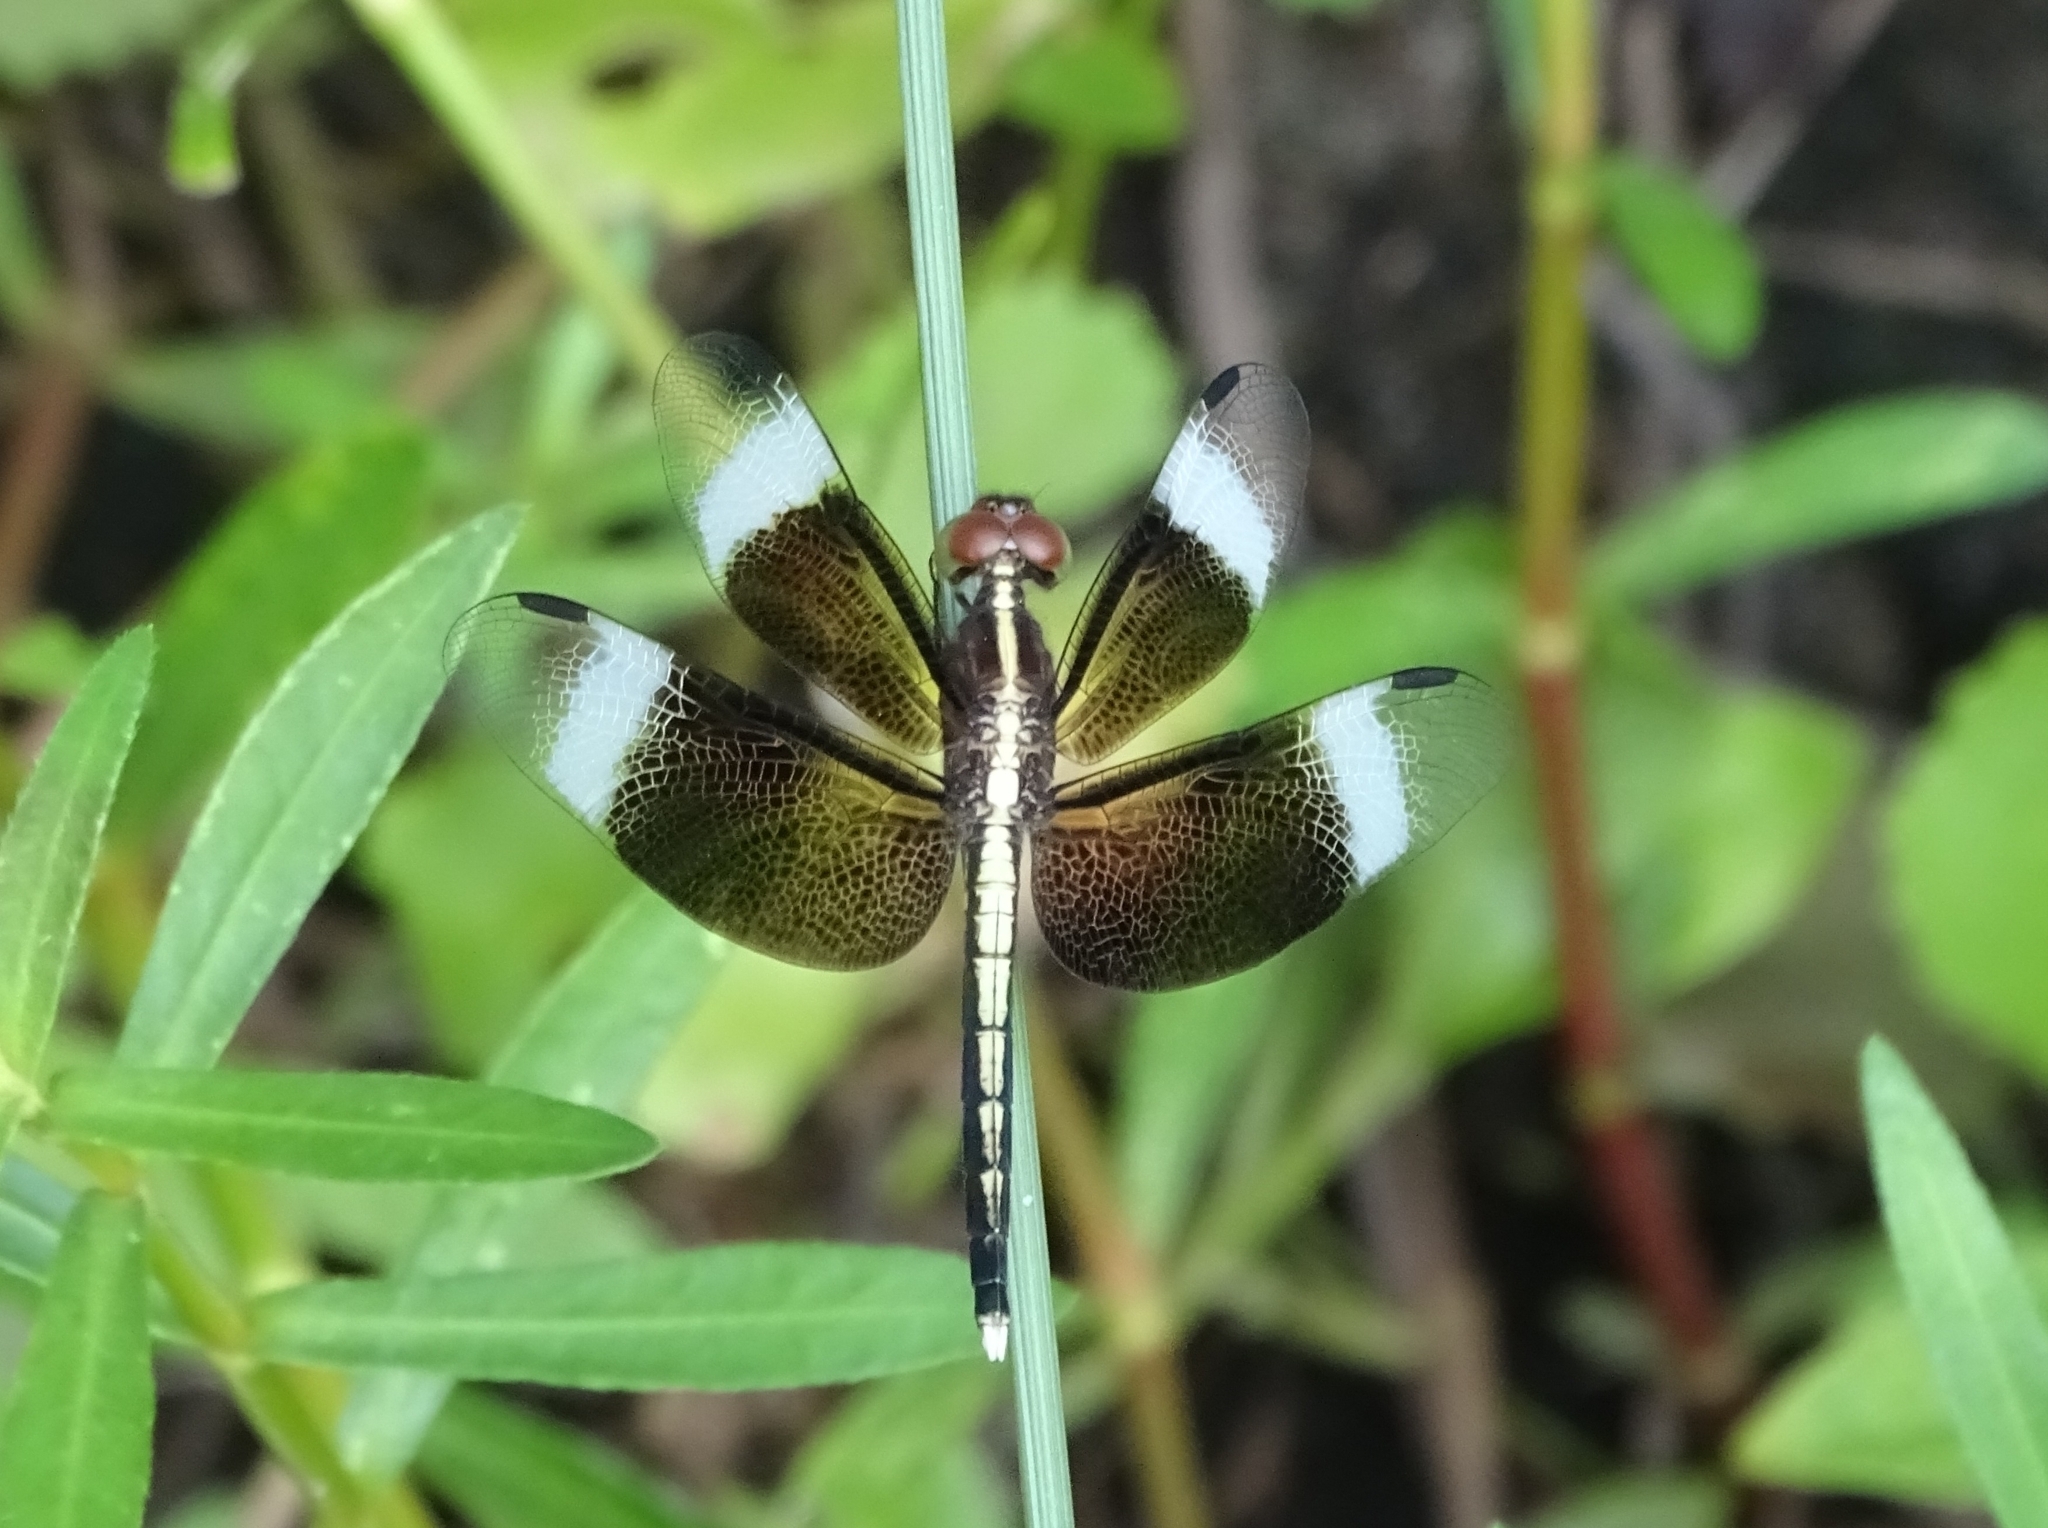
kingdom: Animalia
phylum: Arthropoda
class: Insecta
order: Odonata
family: Libellulidae
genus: Neurothemis
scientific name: Neurothemis tullia
